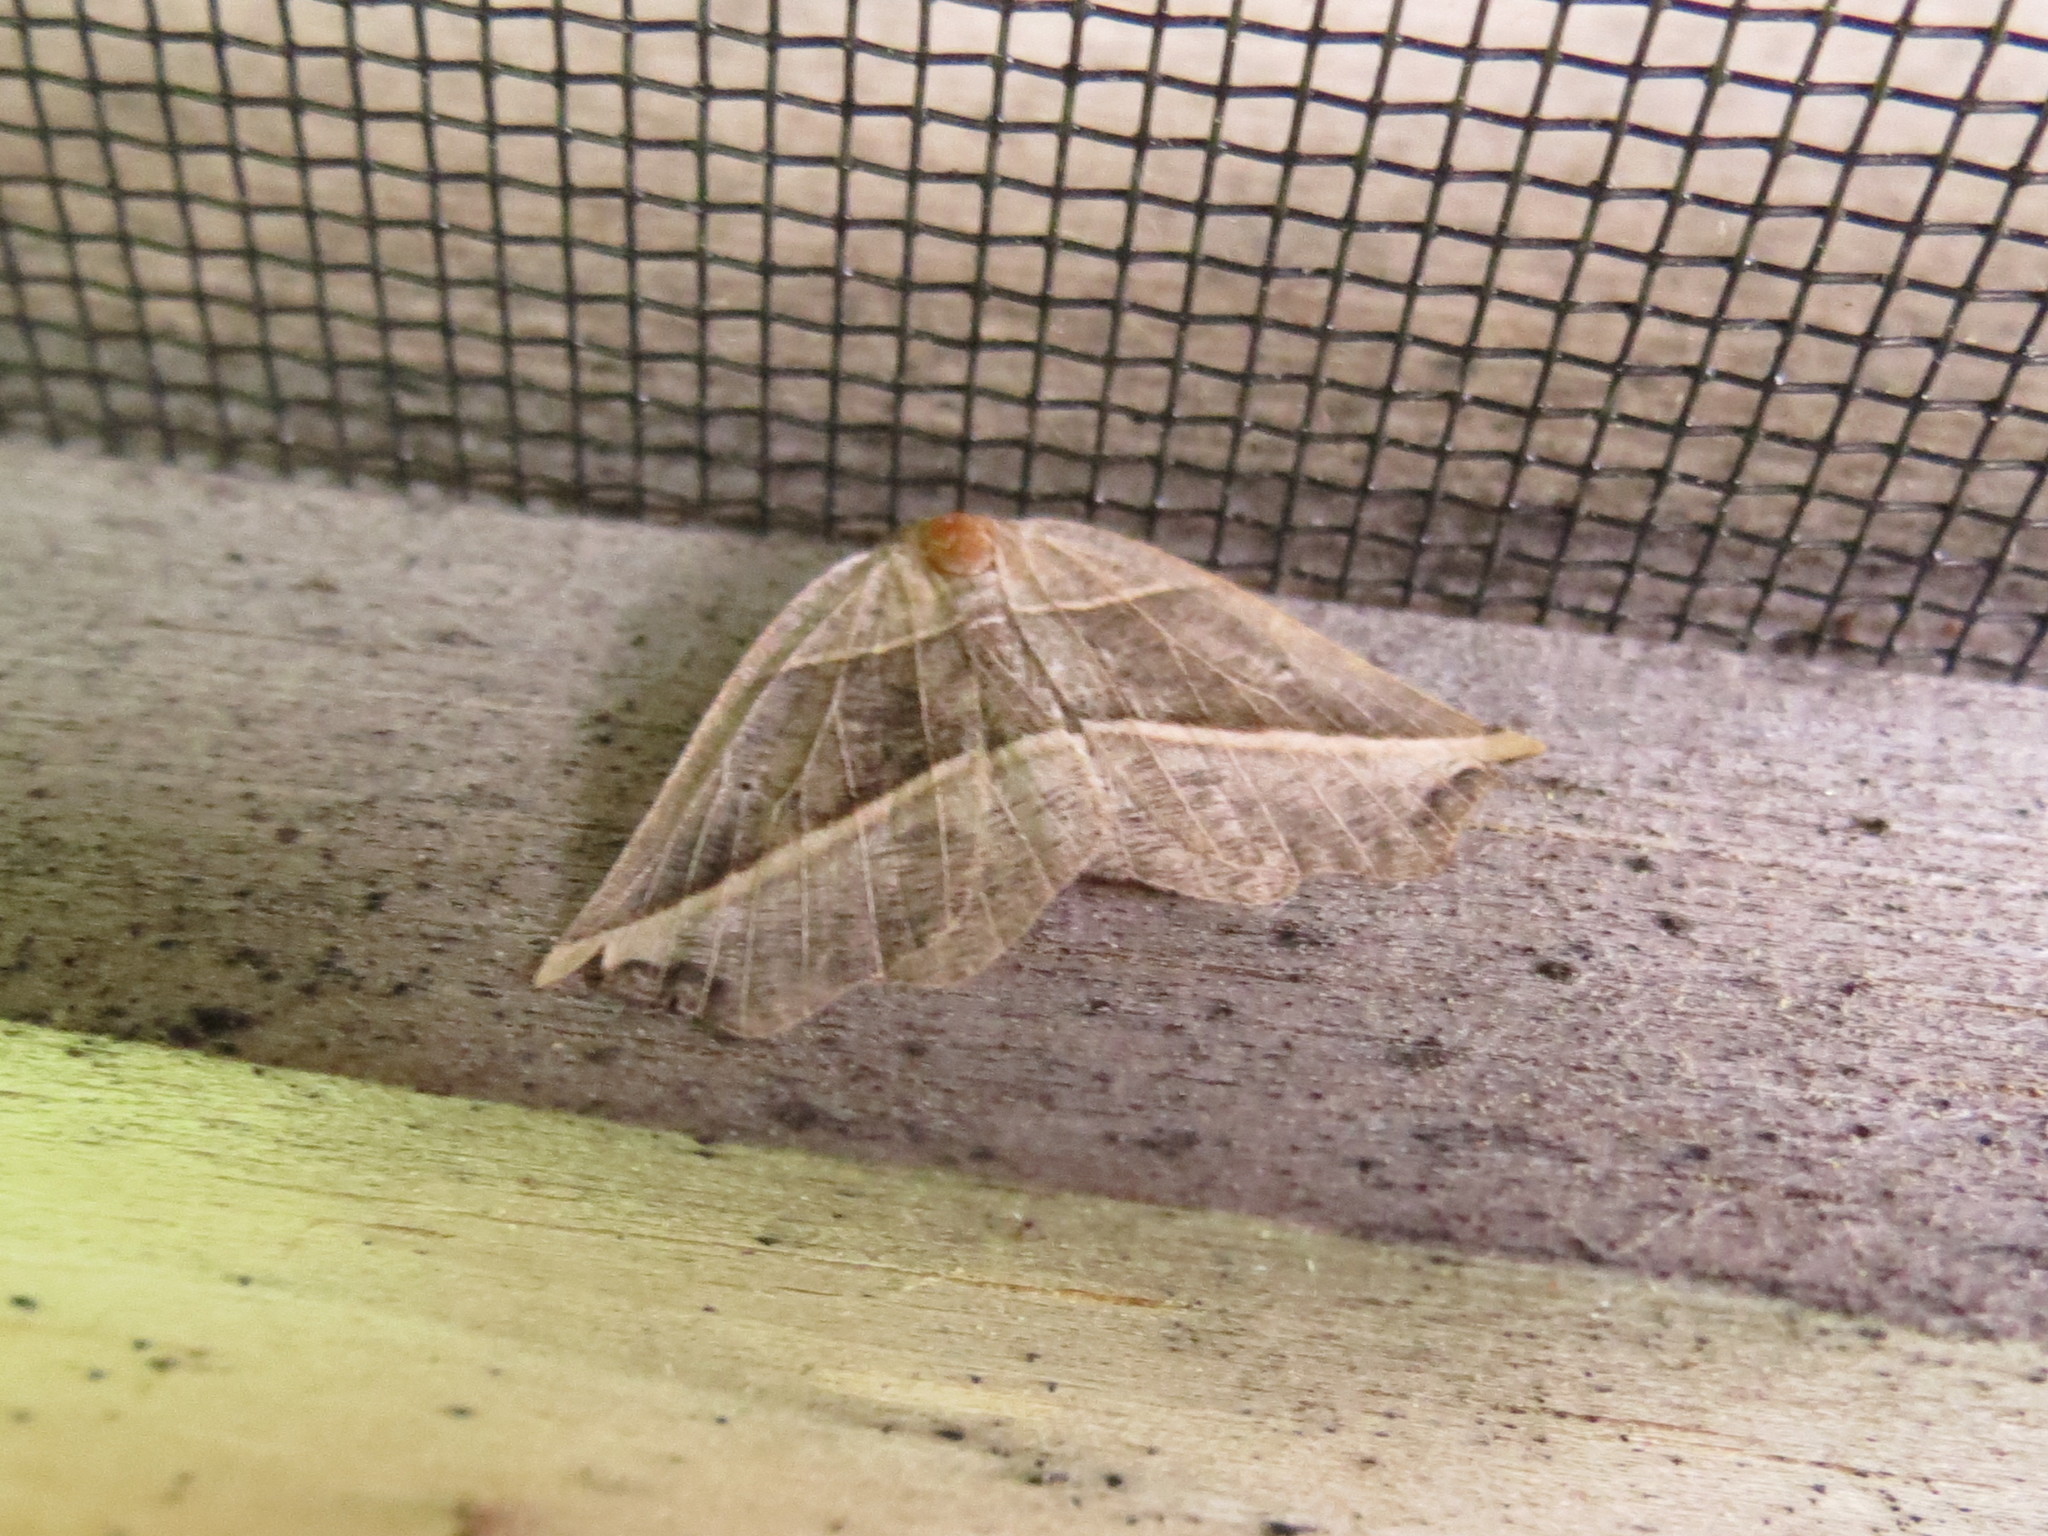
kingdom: Animalia
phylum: Arthropoda
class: Insecta
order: Lepidoptera
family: Geometridae
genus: Metanema
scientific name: Metanema determinata
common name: Dark metanema
